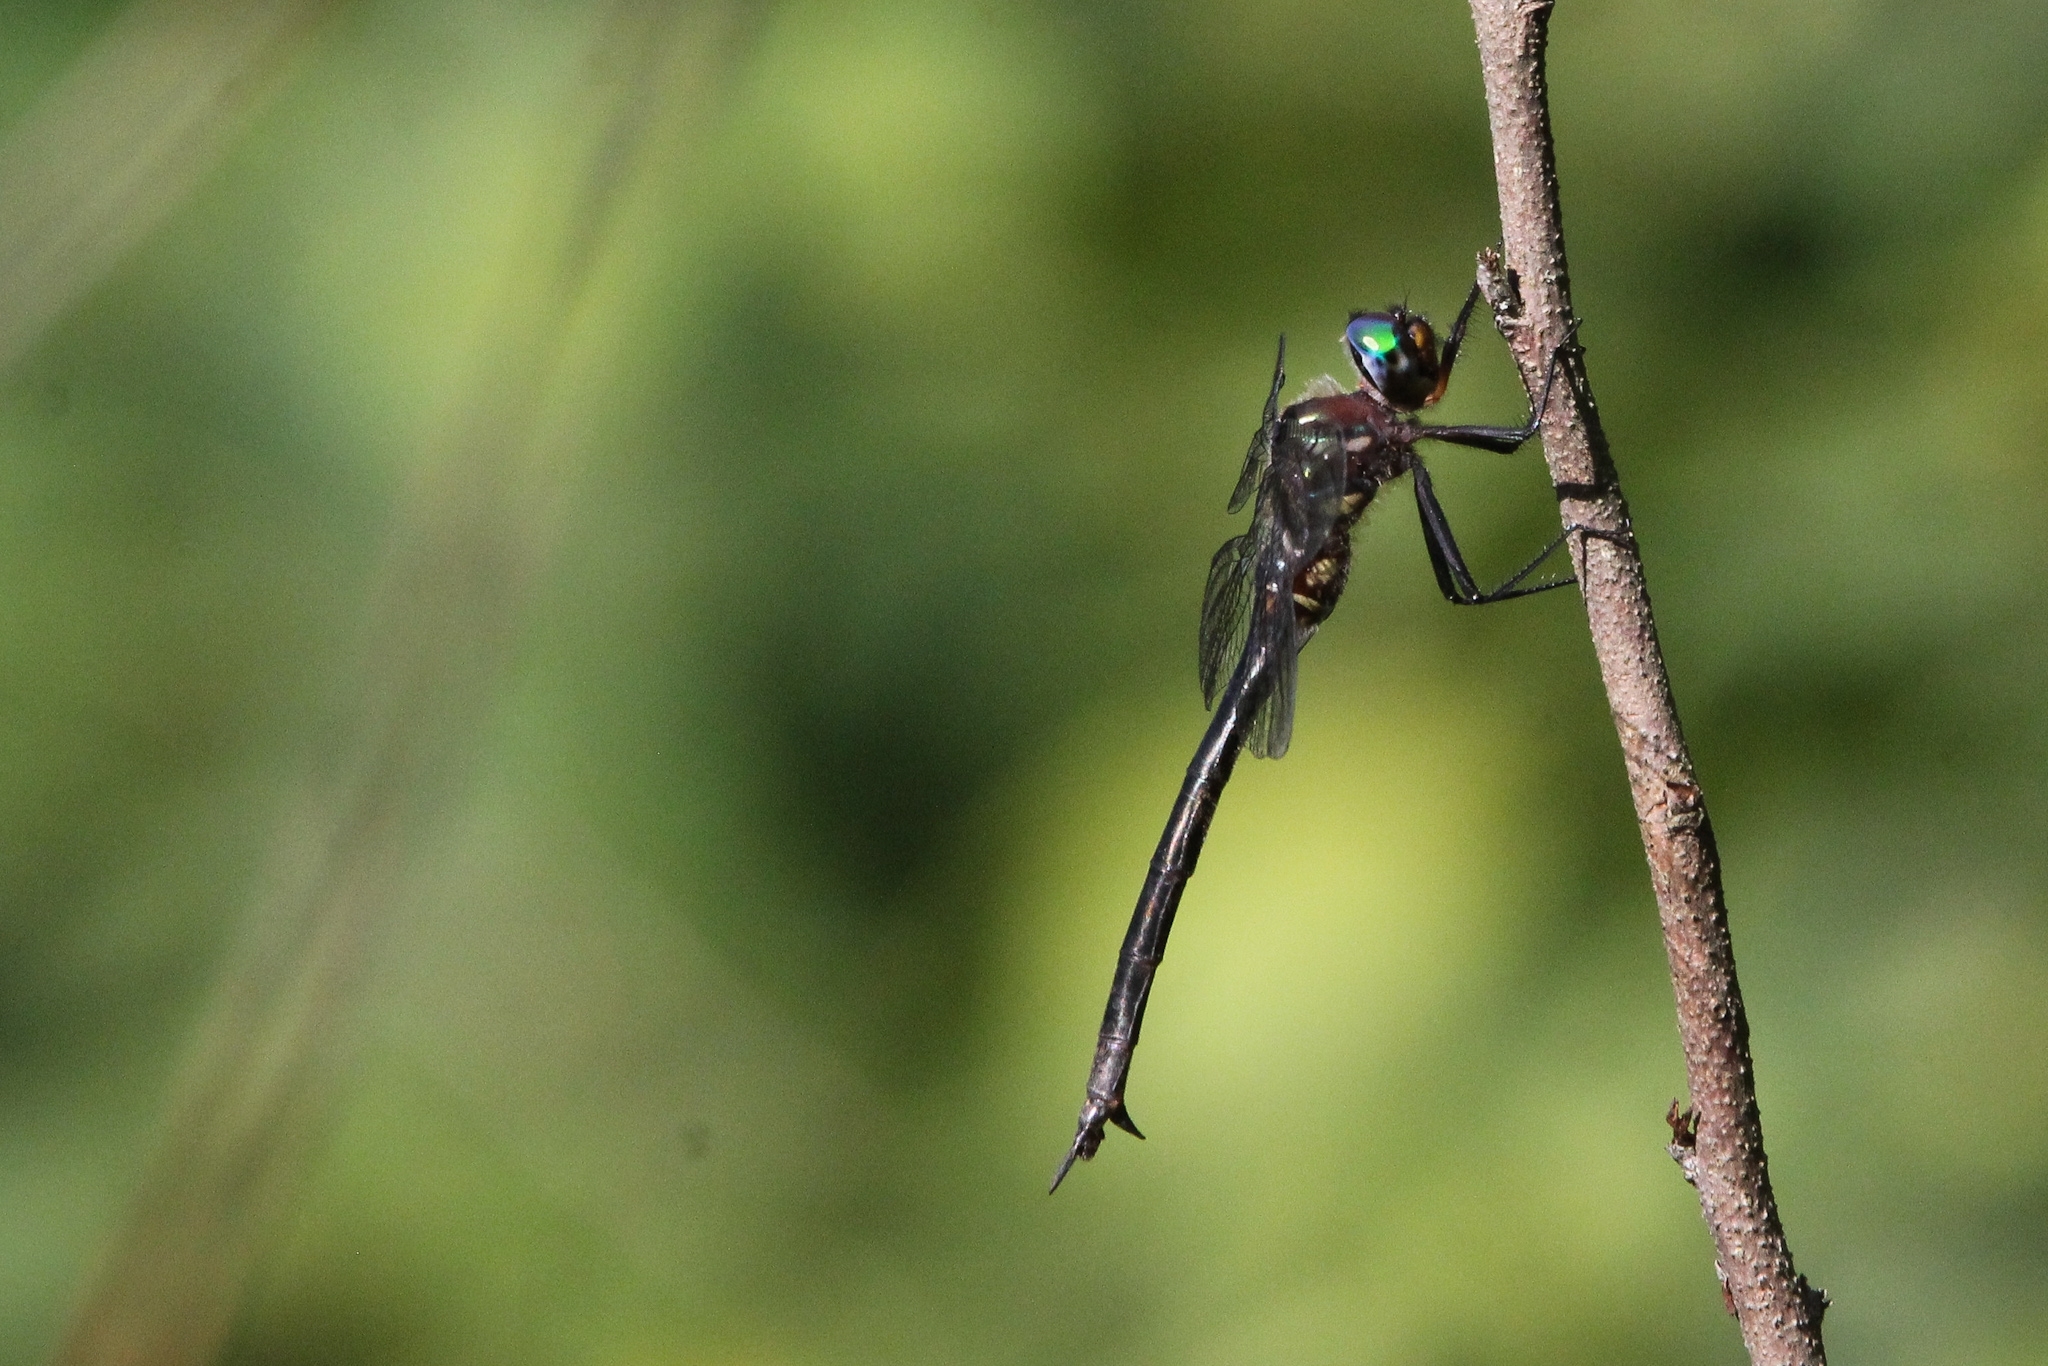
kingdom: Animalia
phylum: Arthropoda
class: Insecta
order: Odonata
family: Corduliidae
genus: Somatochlora
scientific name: Somatochlora tenebrosa
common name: Clamp-tipped emerald
